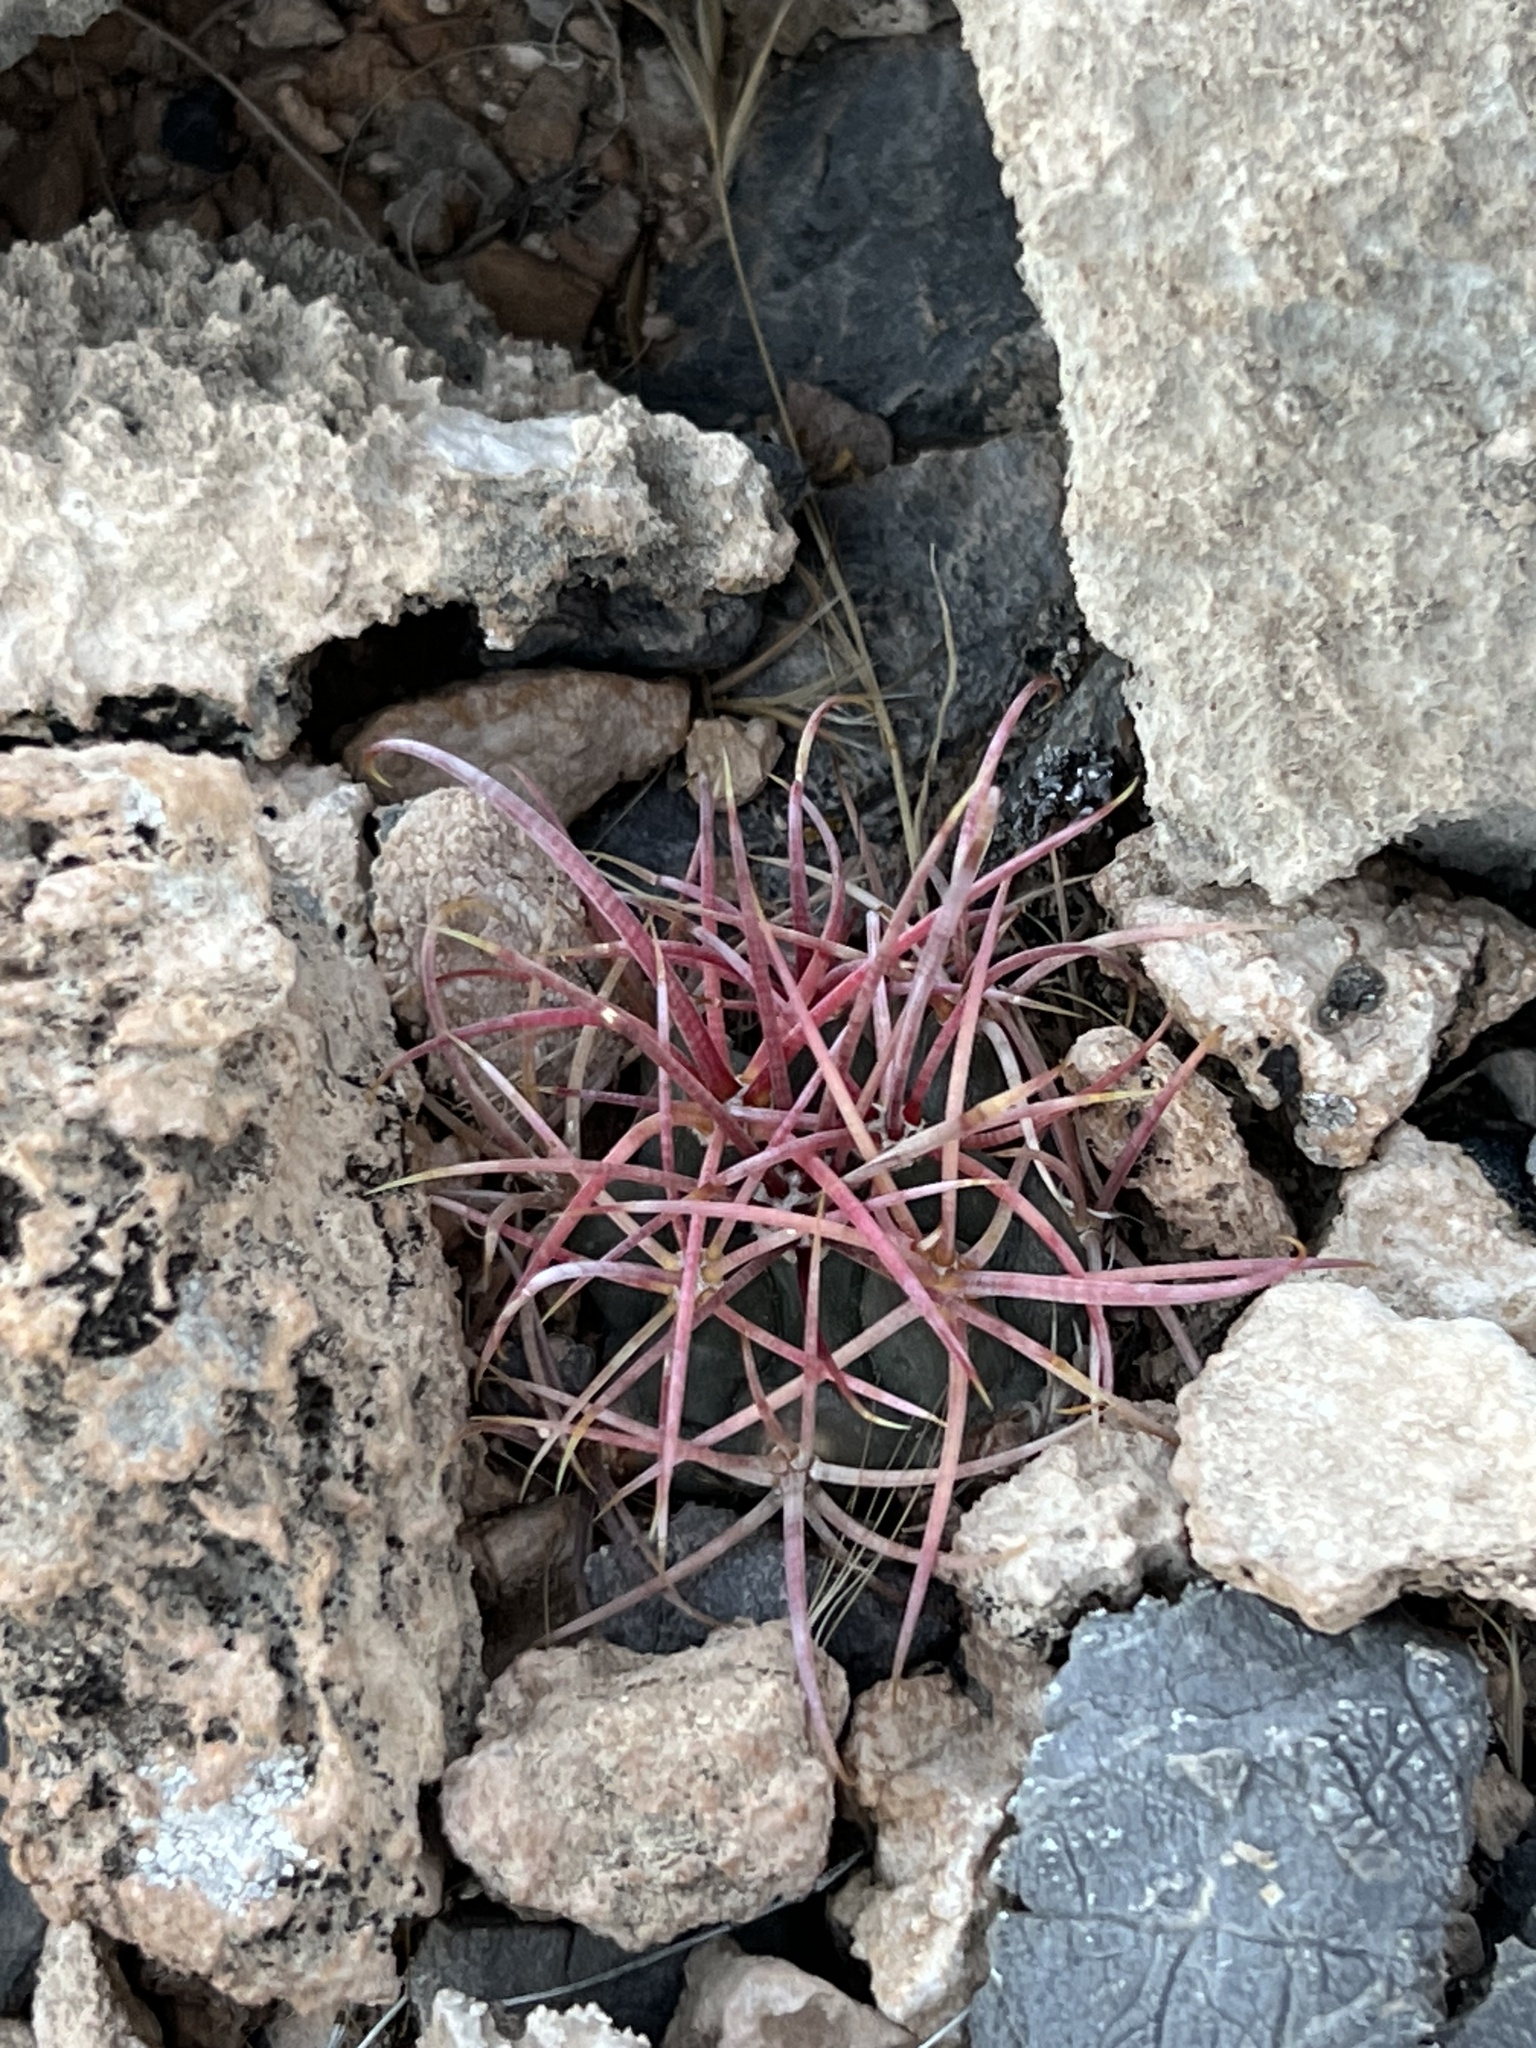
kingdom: Plantae
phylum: Tracheophyta
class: Magnoliopsida
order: Caryophyllales
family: Cactaceae
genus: Ferocactus
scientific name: Ferocactus cylindraceus
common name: California barrel cactus
